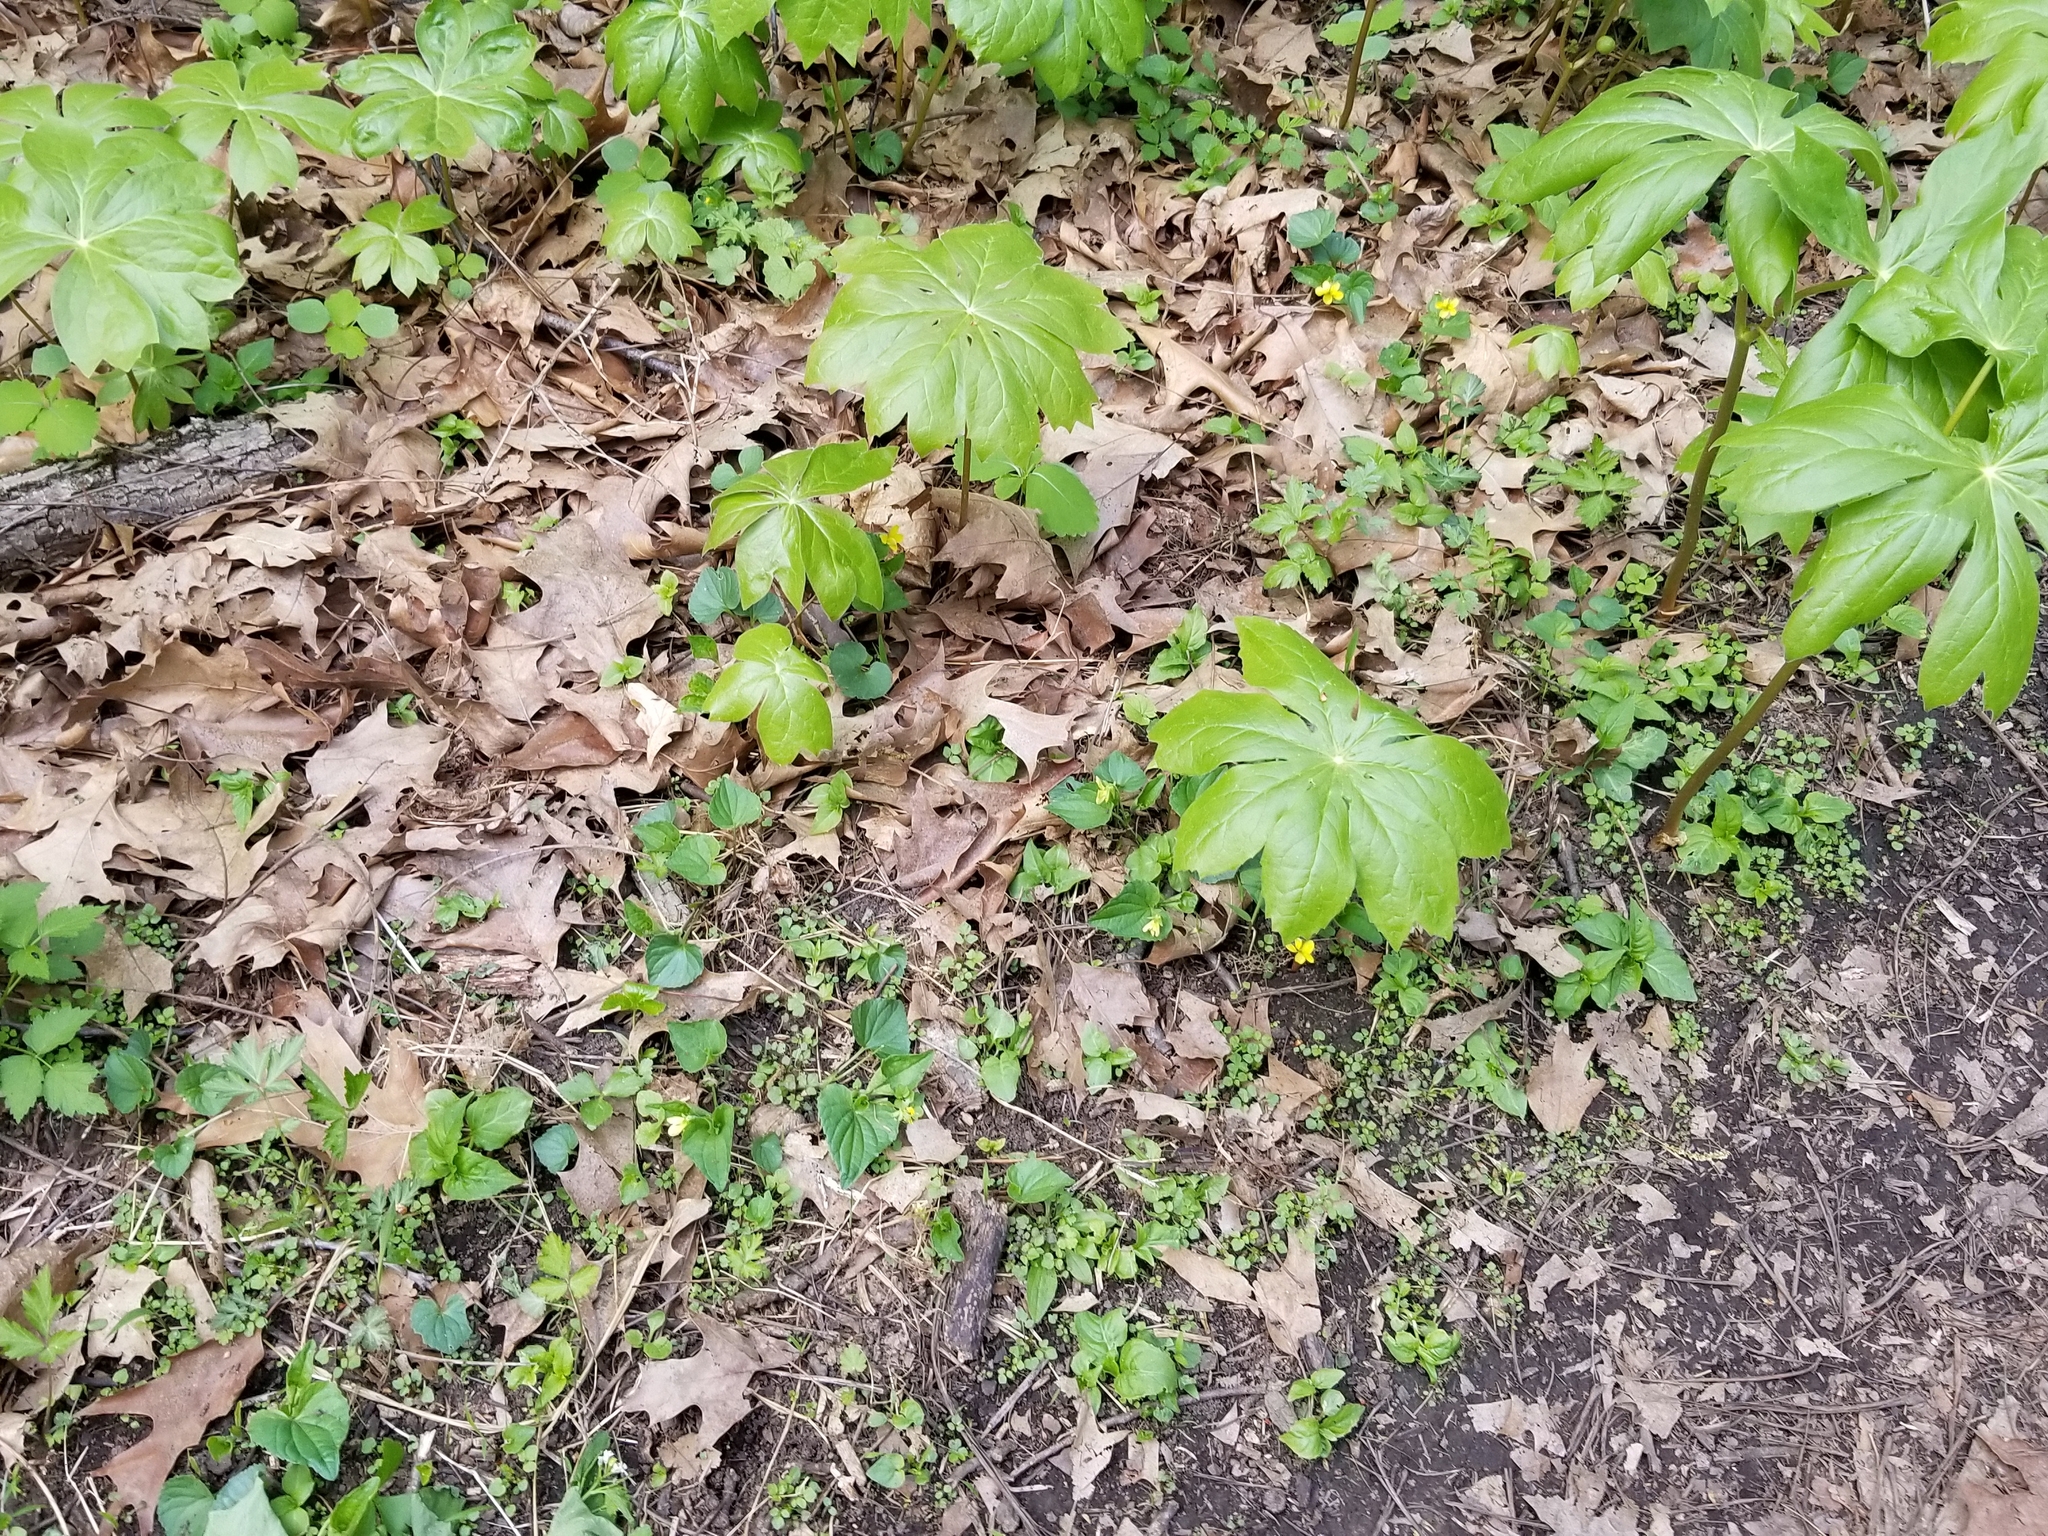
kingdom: Plantae
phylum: Tracheophyta
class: Magnoliopsida
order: Malpighiales
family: Violaceae
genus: Viola
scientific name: Viola eriocarpa
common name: Smooth yellow violet
